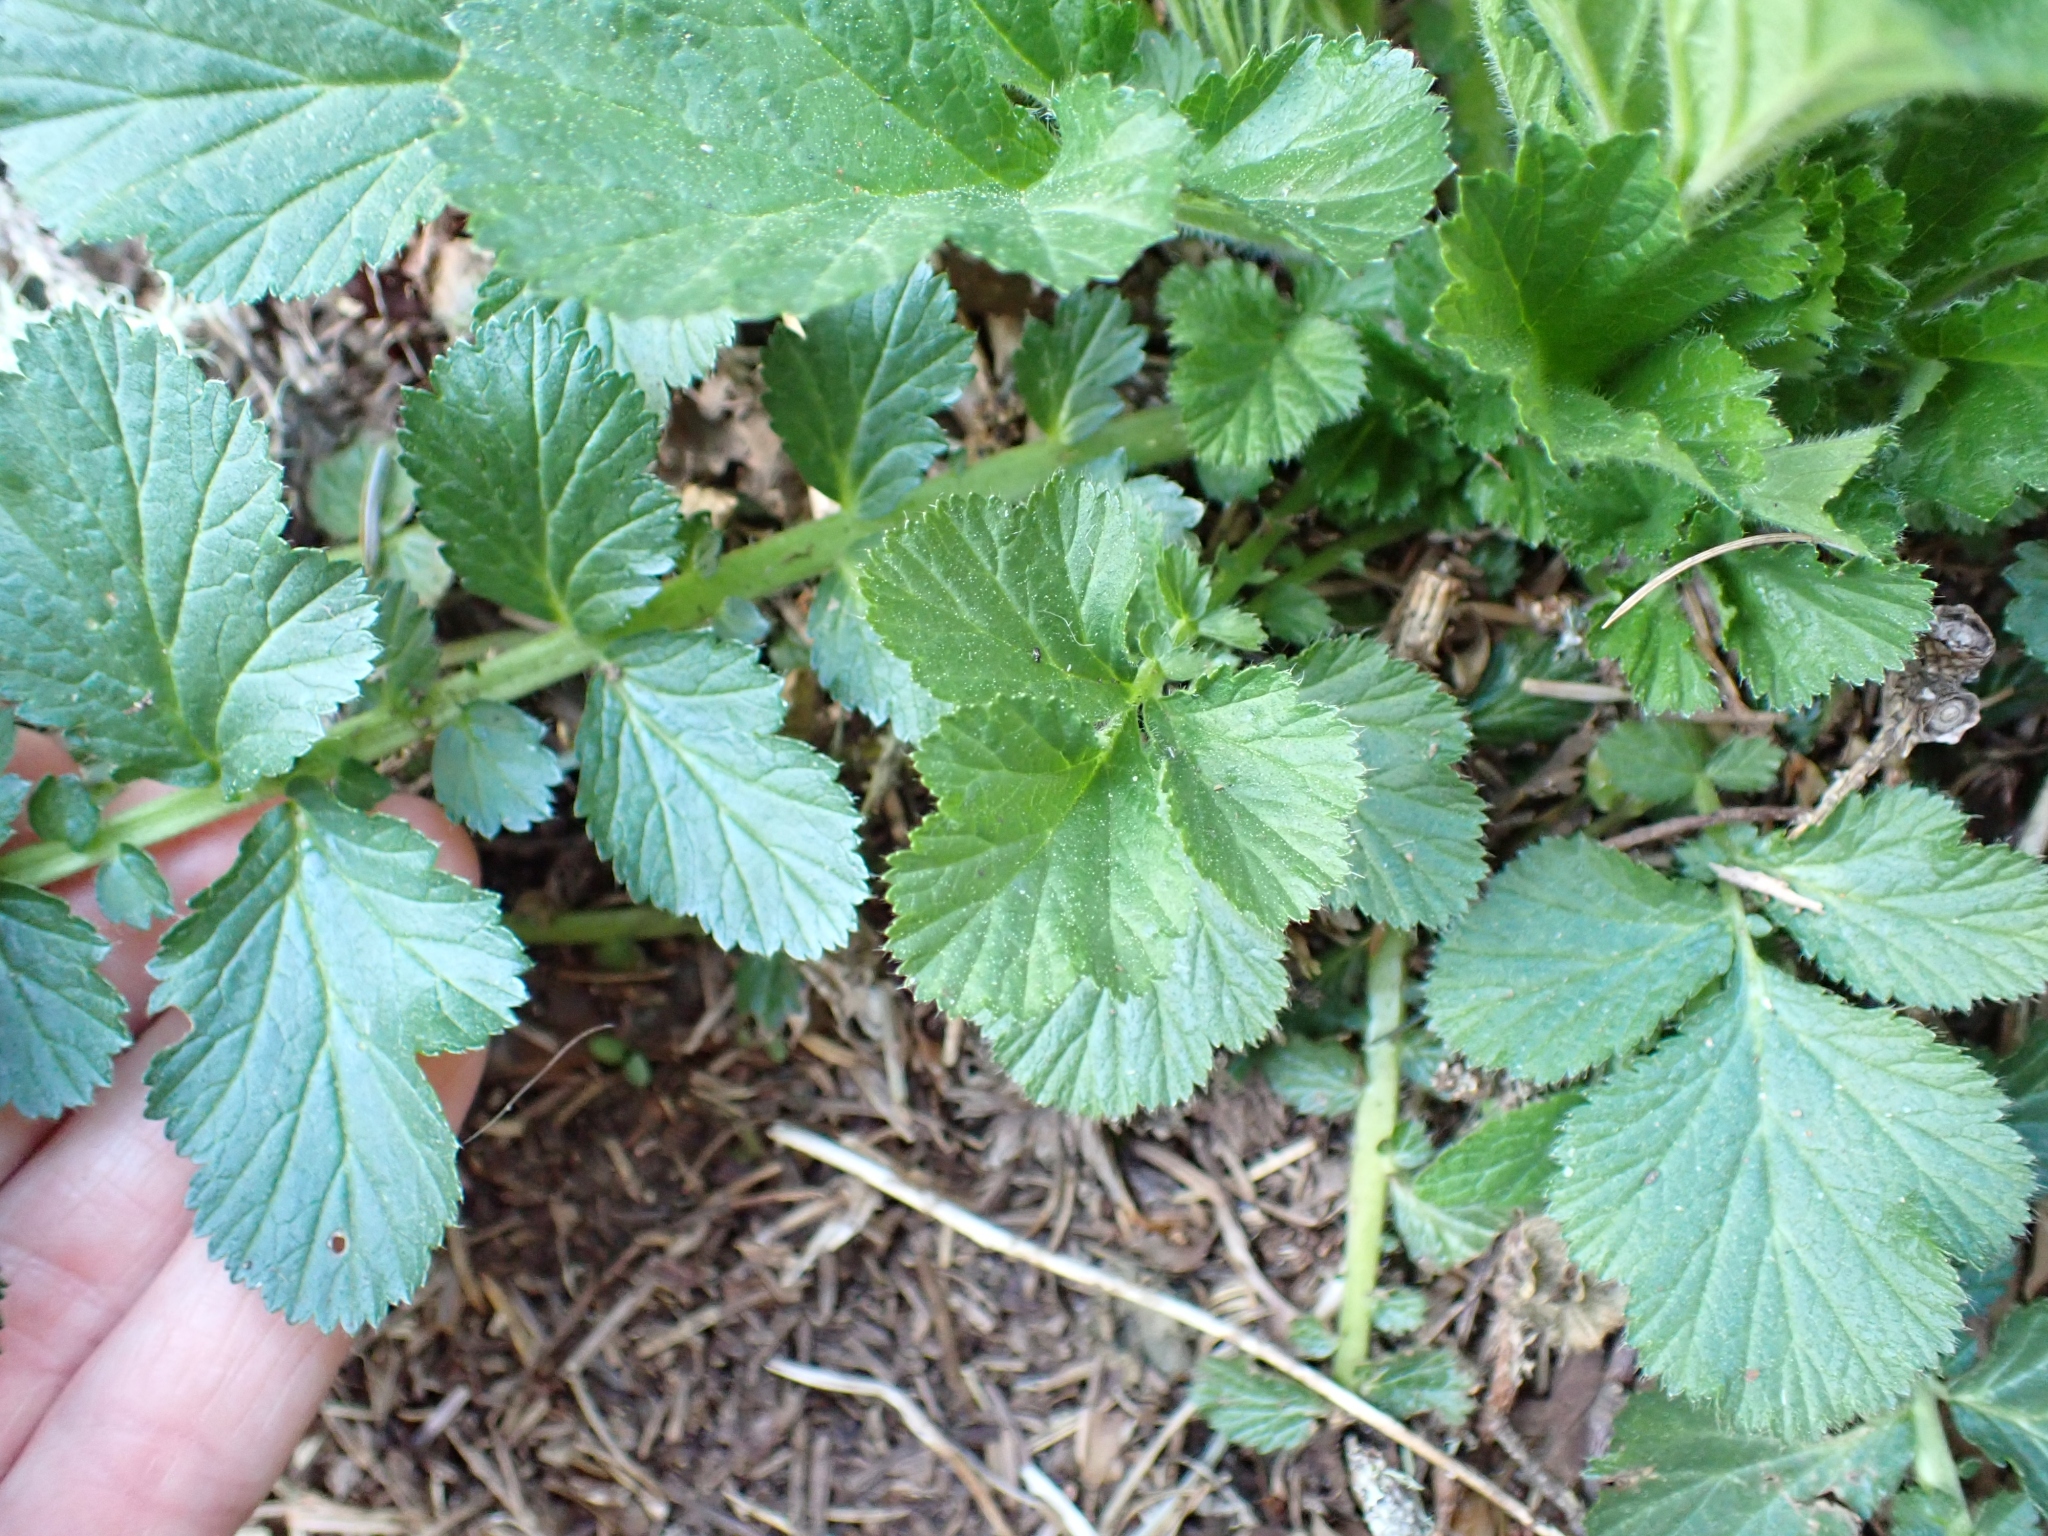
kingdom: Plantae
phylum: Tracheophyta
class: Magnoliopsida
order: Rosales
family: Rosaceae
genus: Geum
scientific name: Geum macrophyllum
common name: Large-leaved avens
